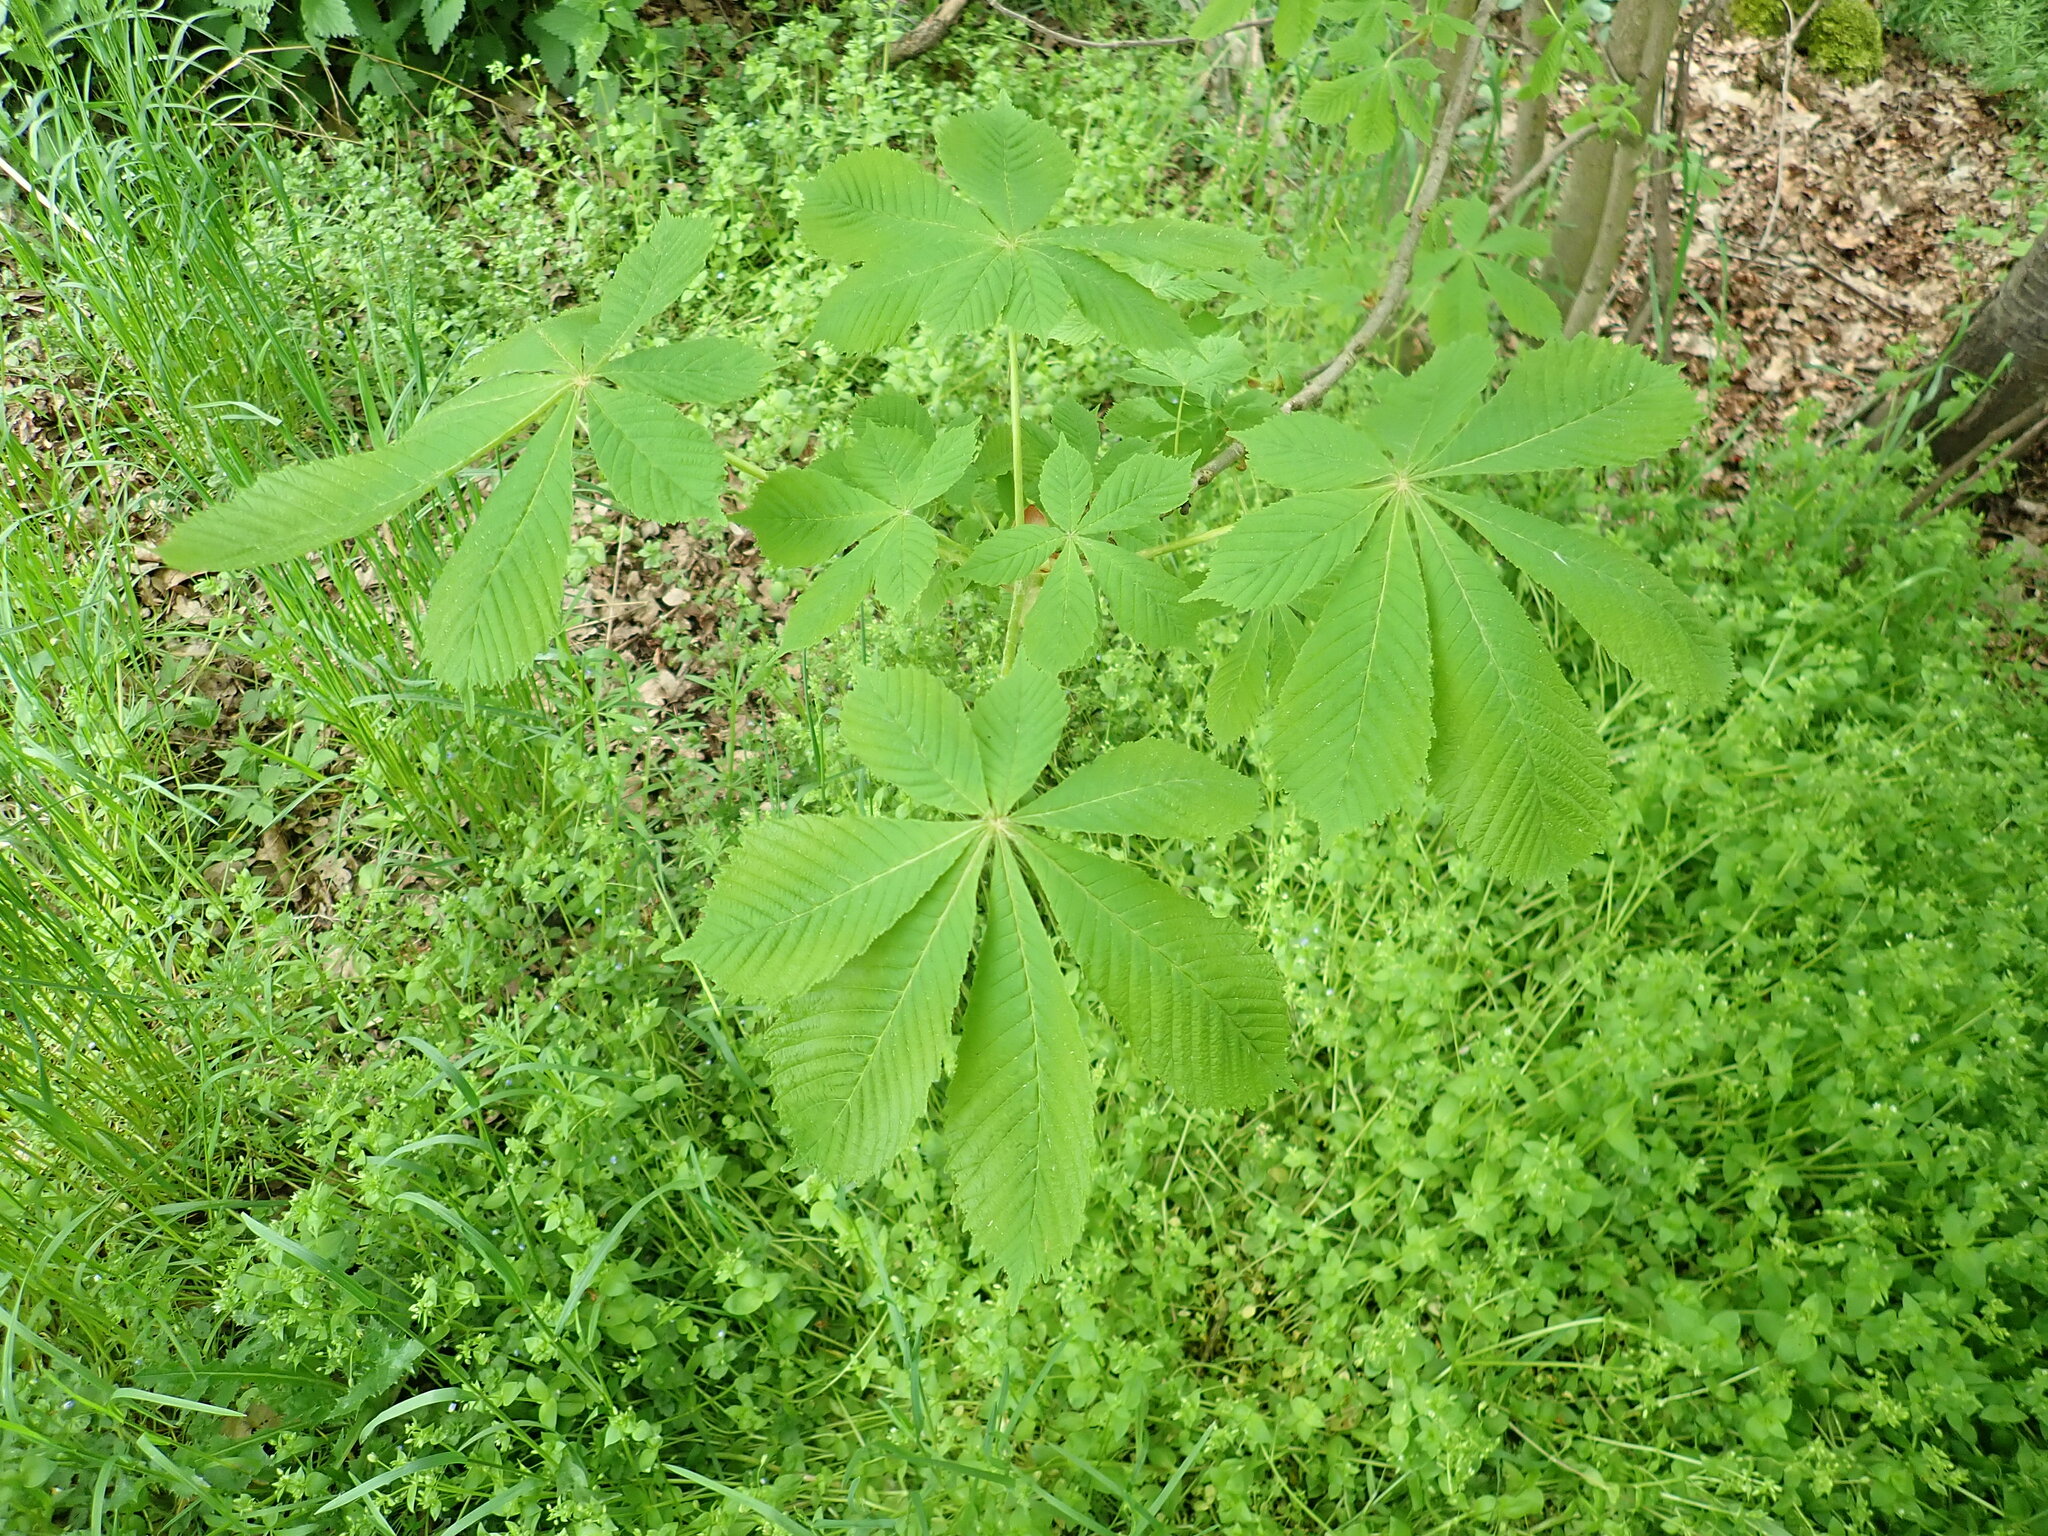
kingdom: Plantae
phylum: Tracheophyta
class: Magnoliopsida
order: Sapindales
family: Sapindaceae
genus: Aesculus
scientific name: Aesculus hippocastanum
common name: Horse-chestnut
